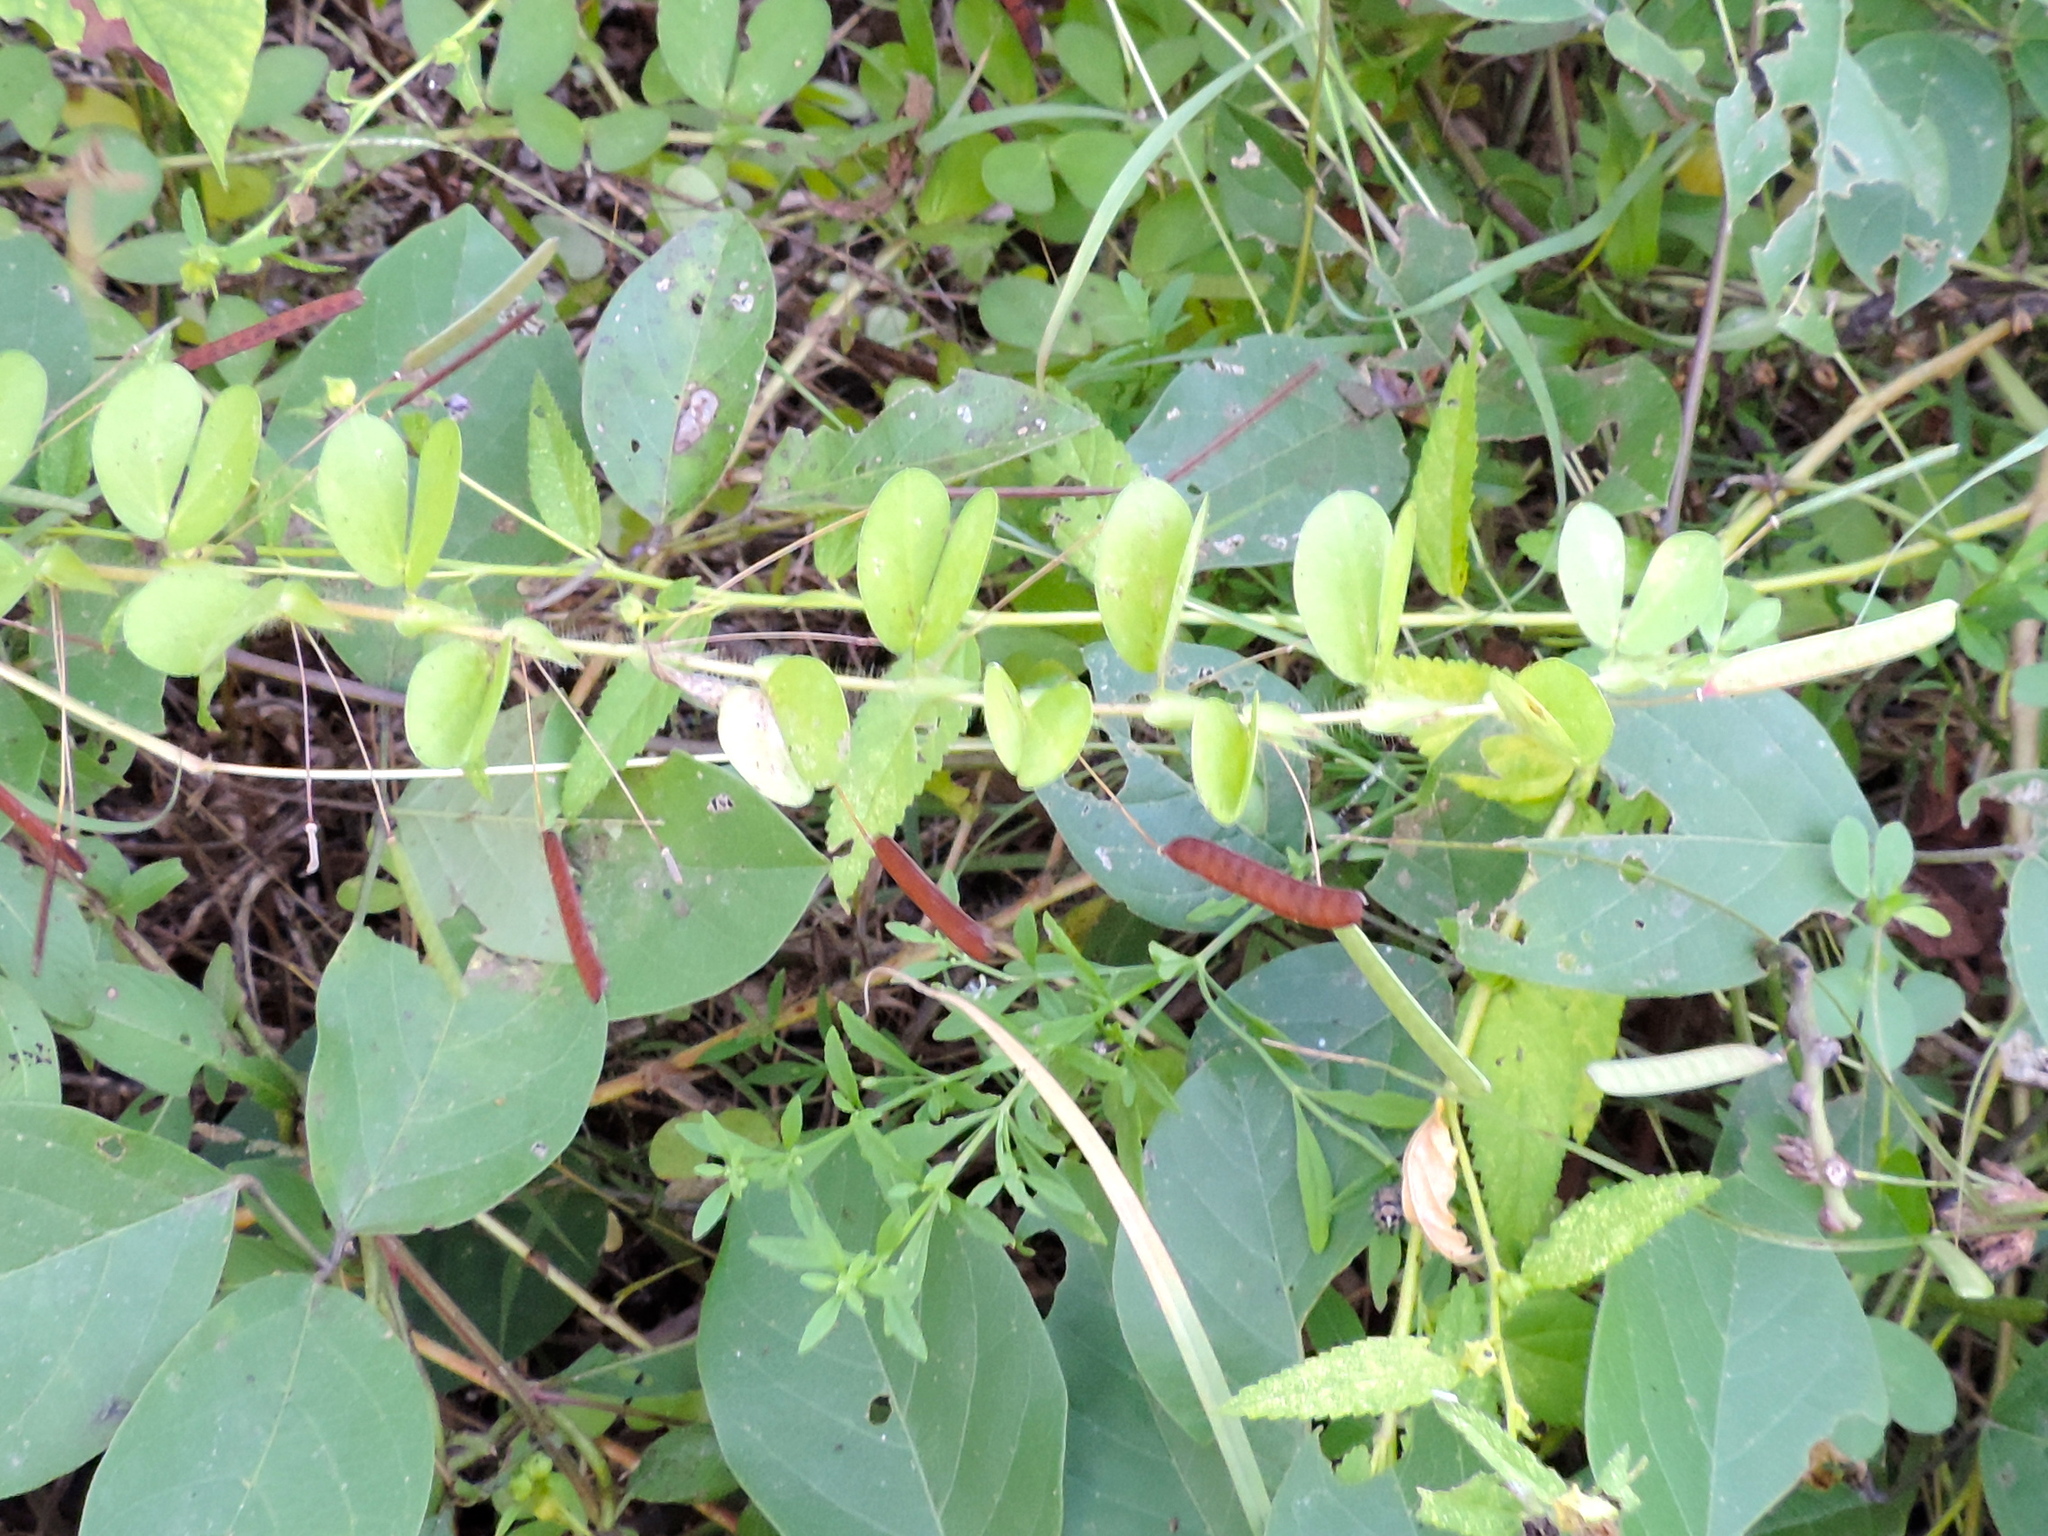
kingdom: Plantae
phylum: Tracheophyta
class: Magnoliopsida
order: Fabales
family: Fabaceae
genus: Chamaecrista
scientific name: Chamaecrista rotundifolia
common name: Round-leaf cassia
